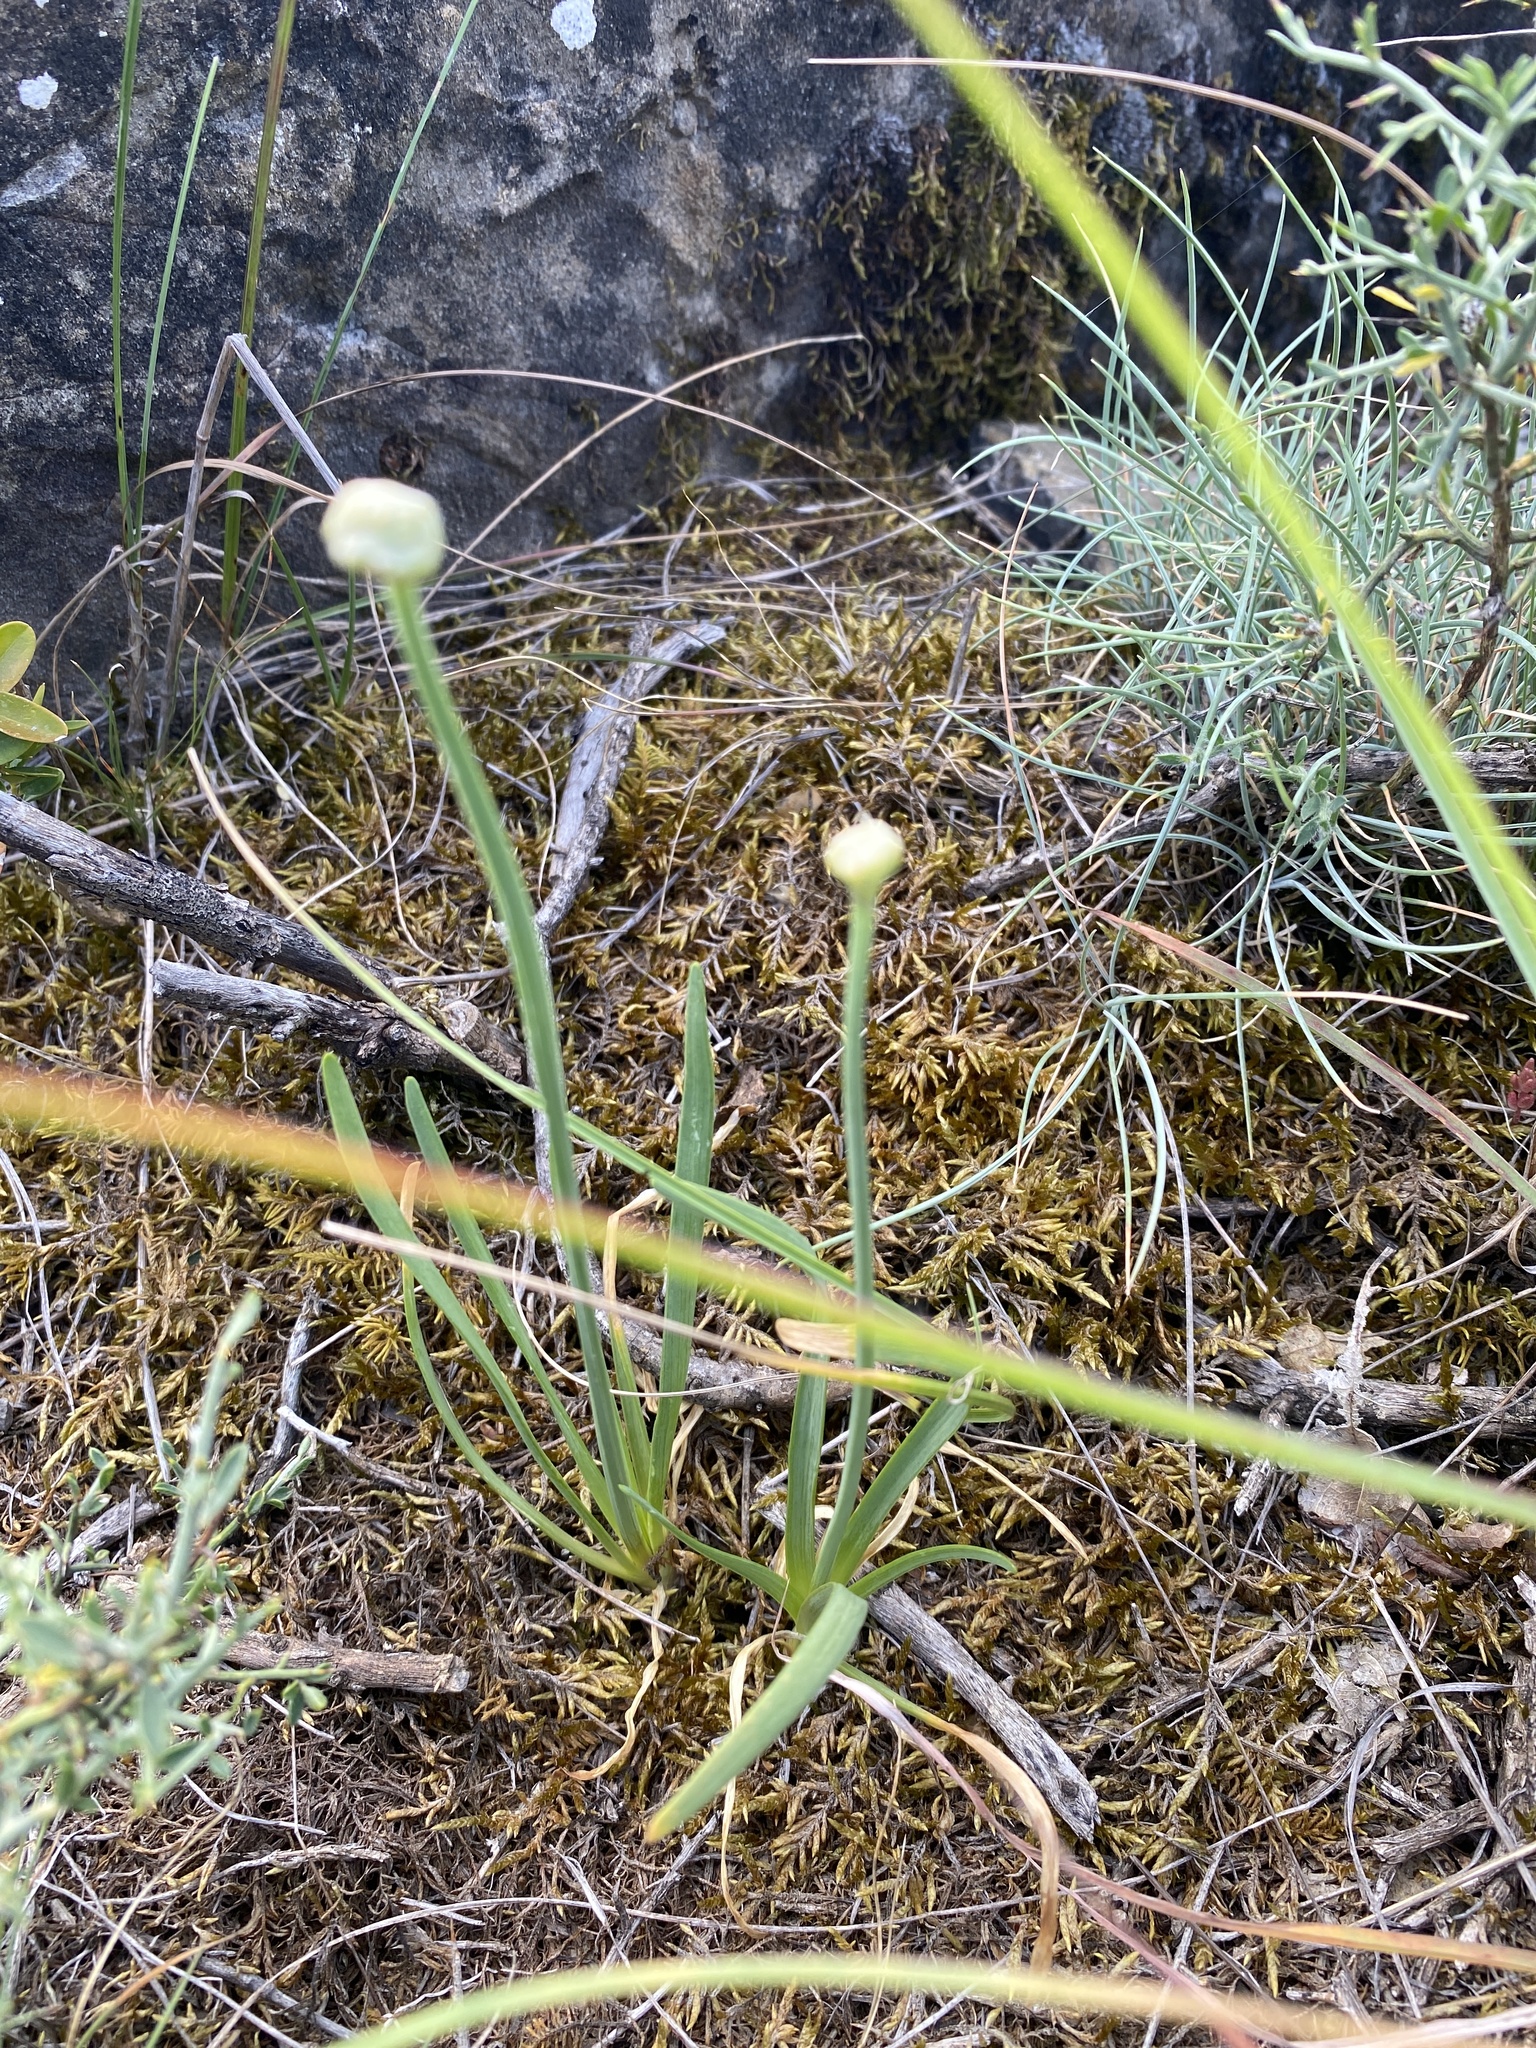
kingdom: Plantae
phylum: Tracheophyta
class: Liliopsida
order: Asparagales
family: Amaryllidaceae
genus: Allium
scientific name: Allium lusitanicum
